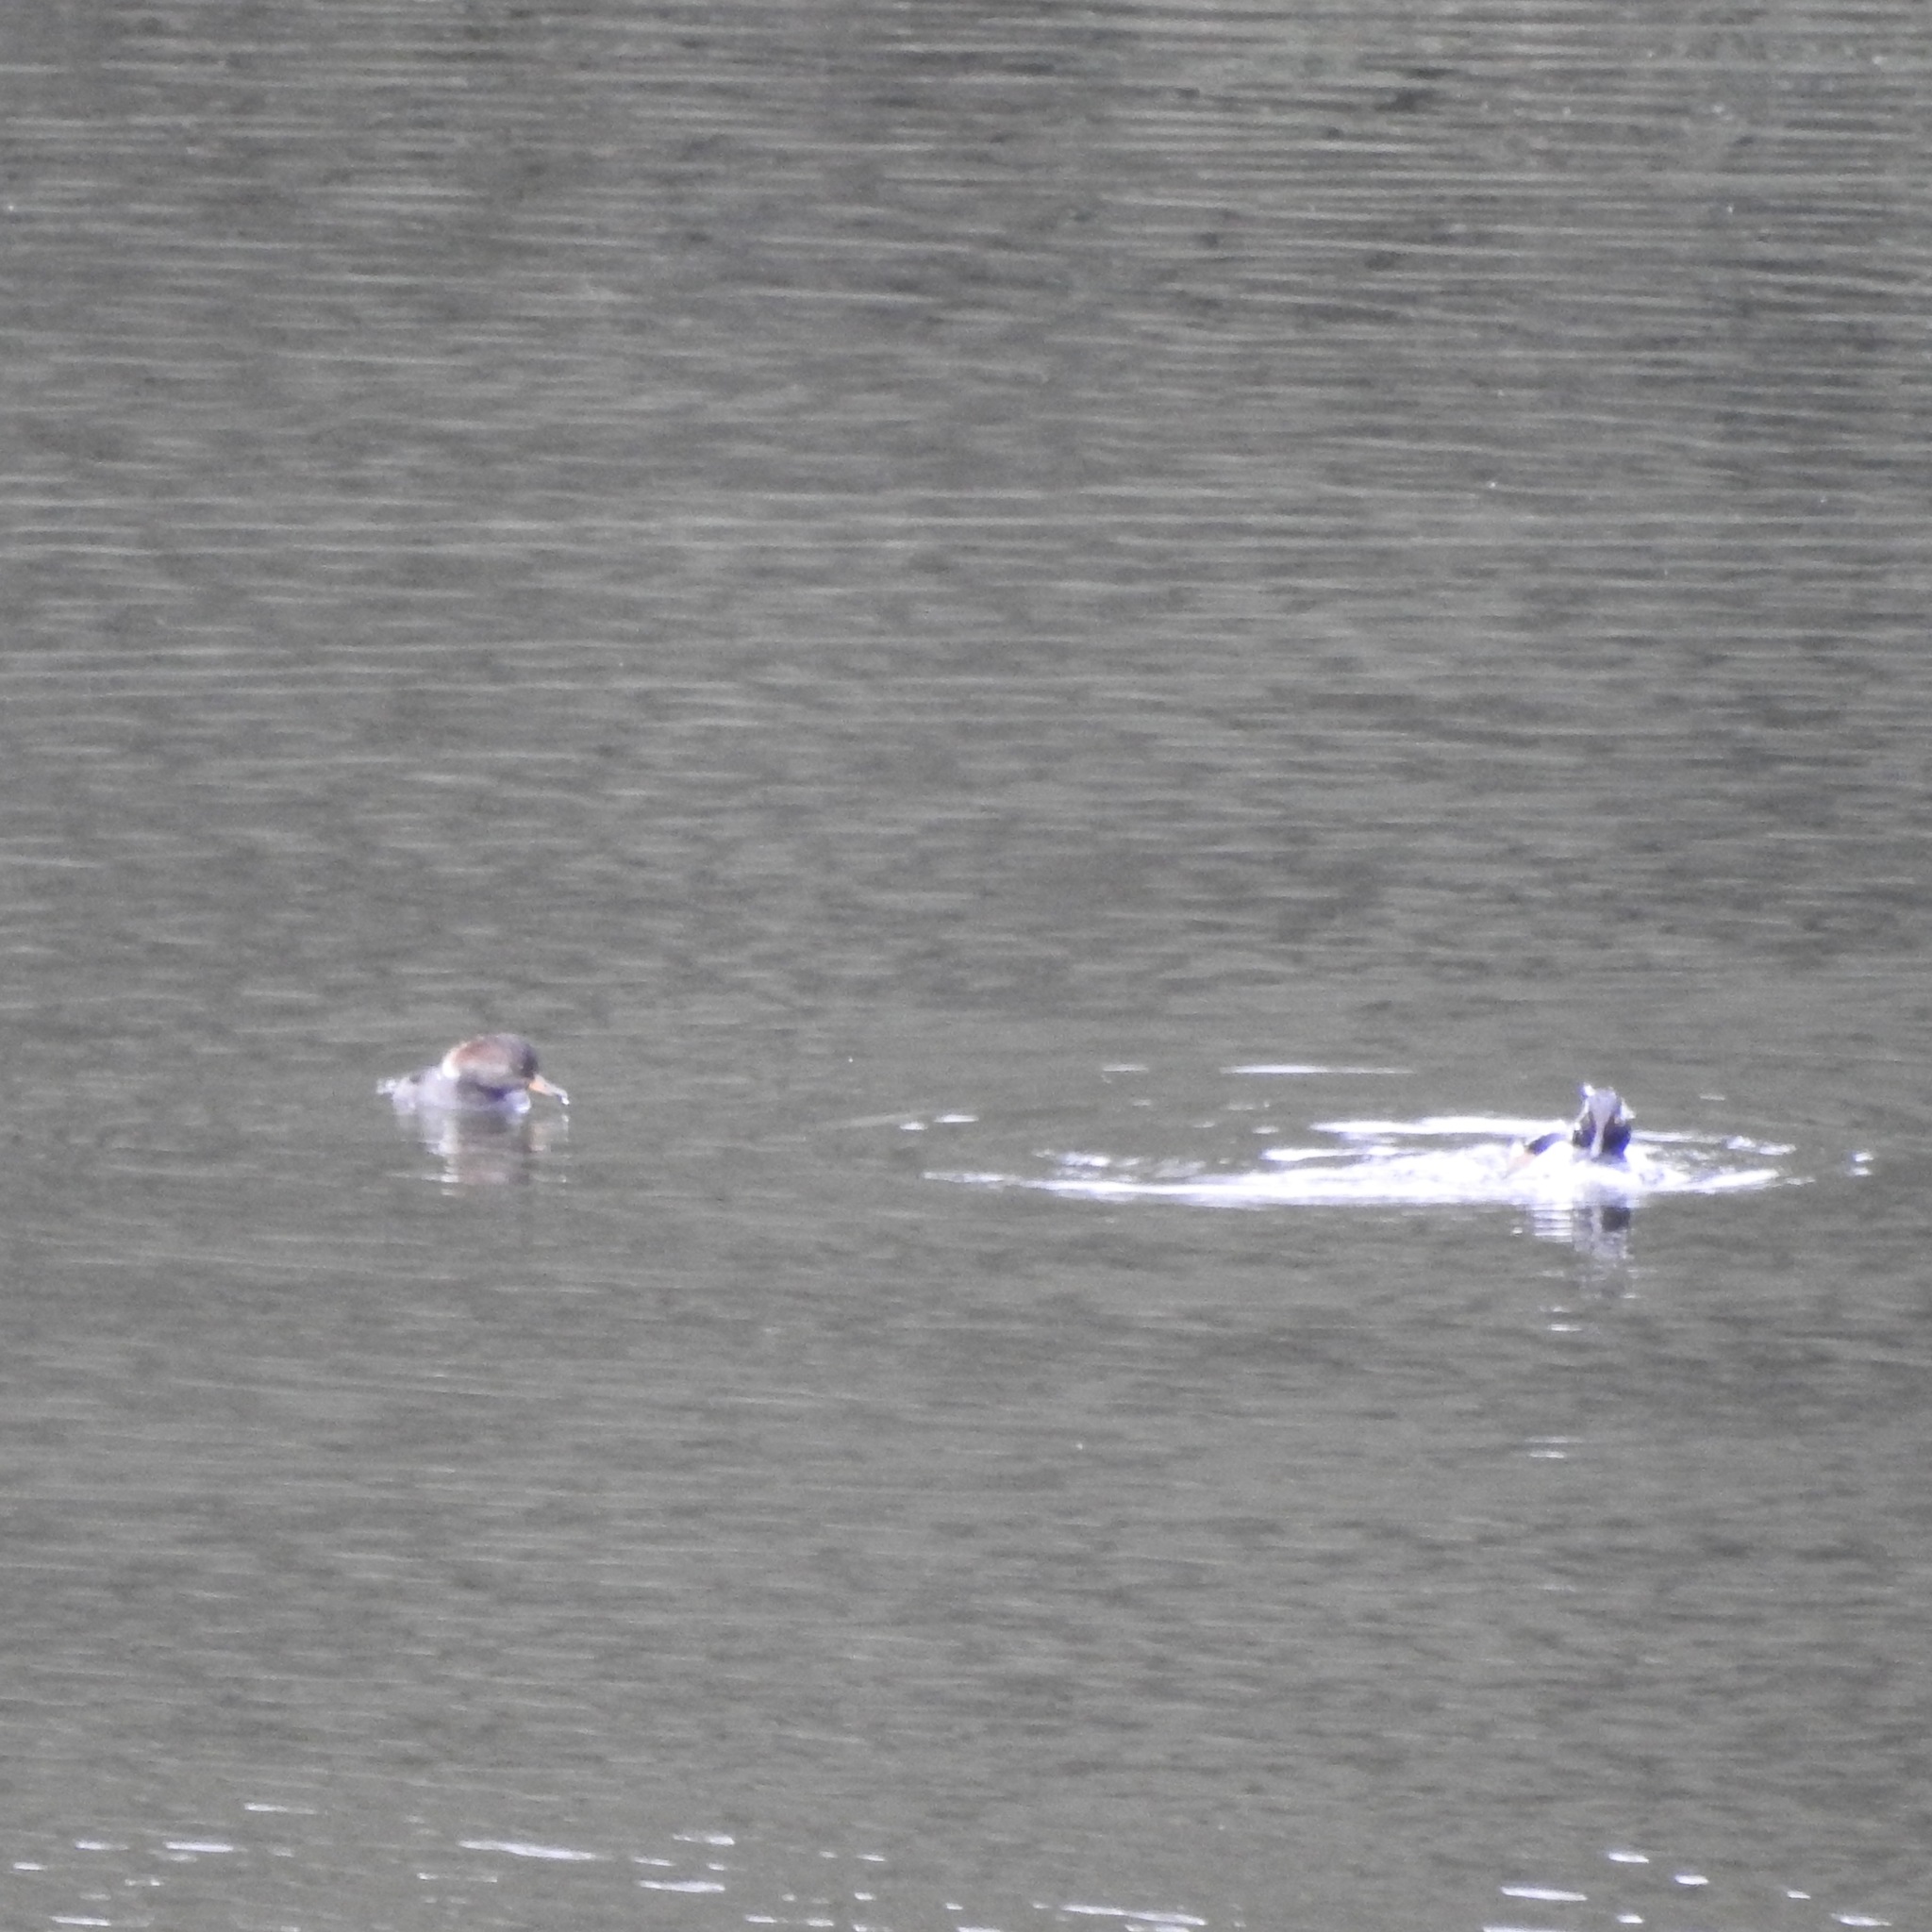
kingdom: Animalia
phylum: Chordata
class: Aves
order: Anseriformes
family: Anatidae
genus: Lophodytes
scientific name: Lophodytes cucullatus
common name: Hooded merganser
